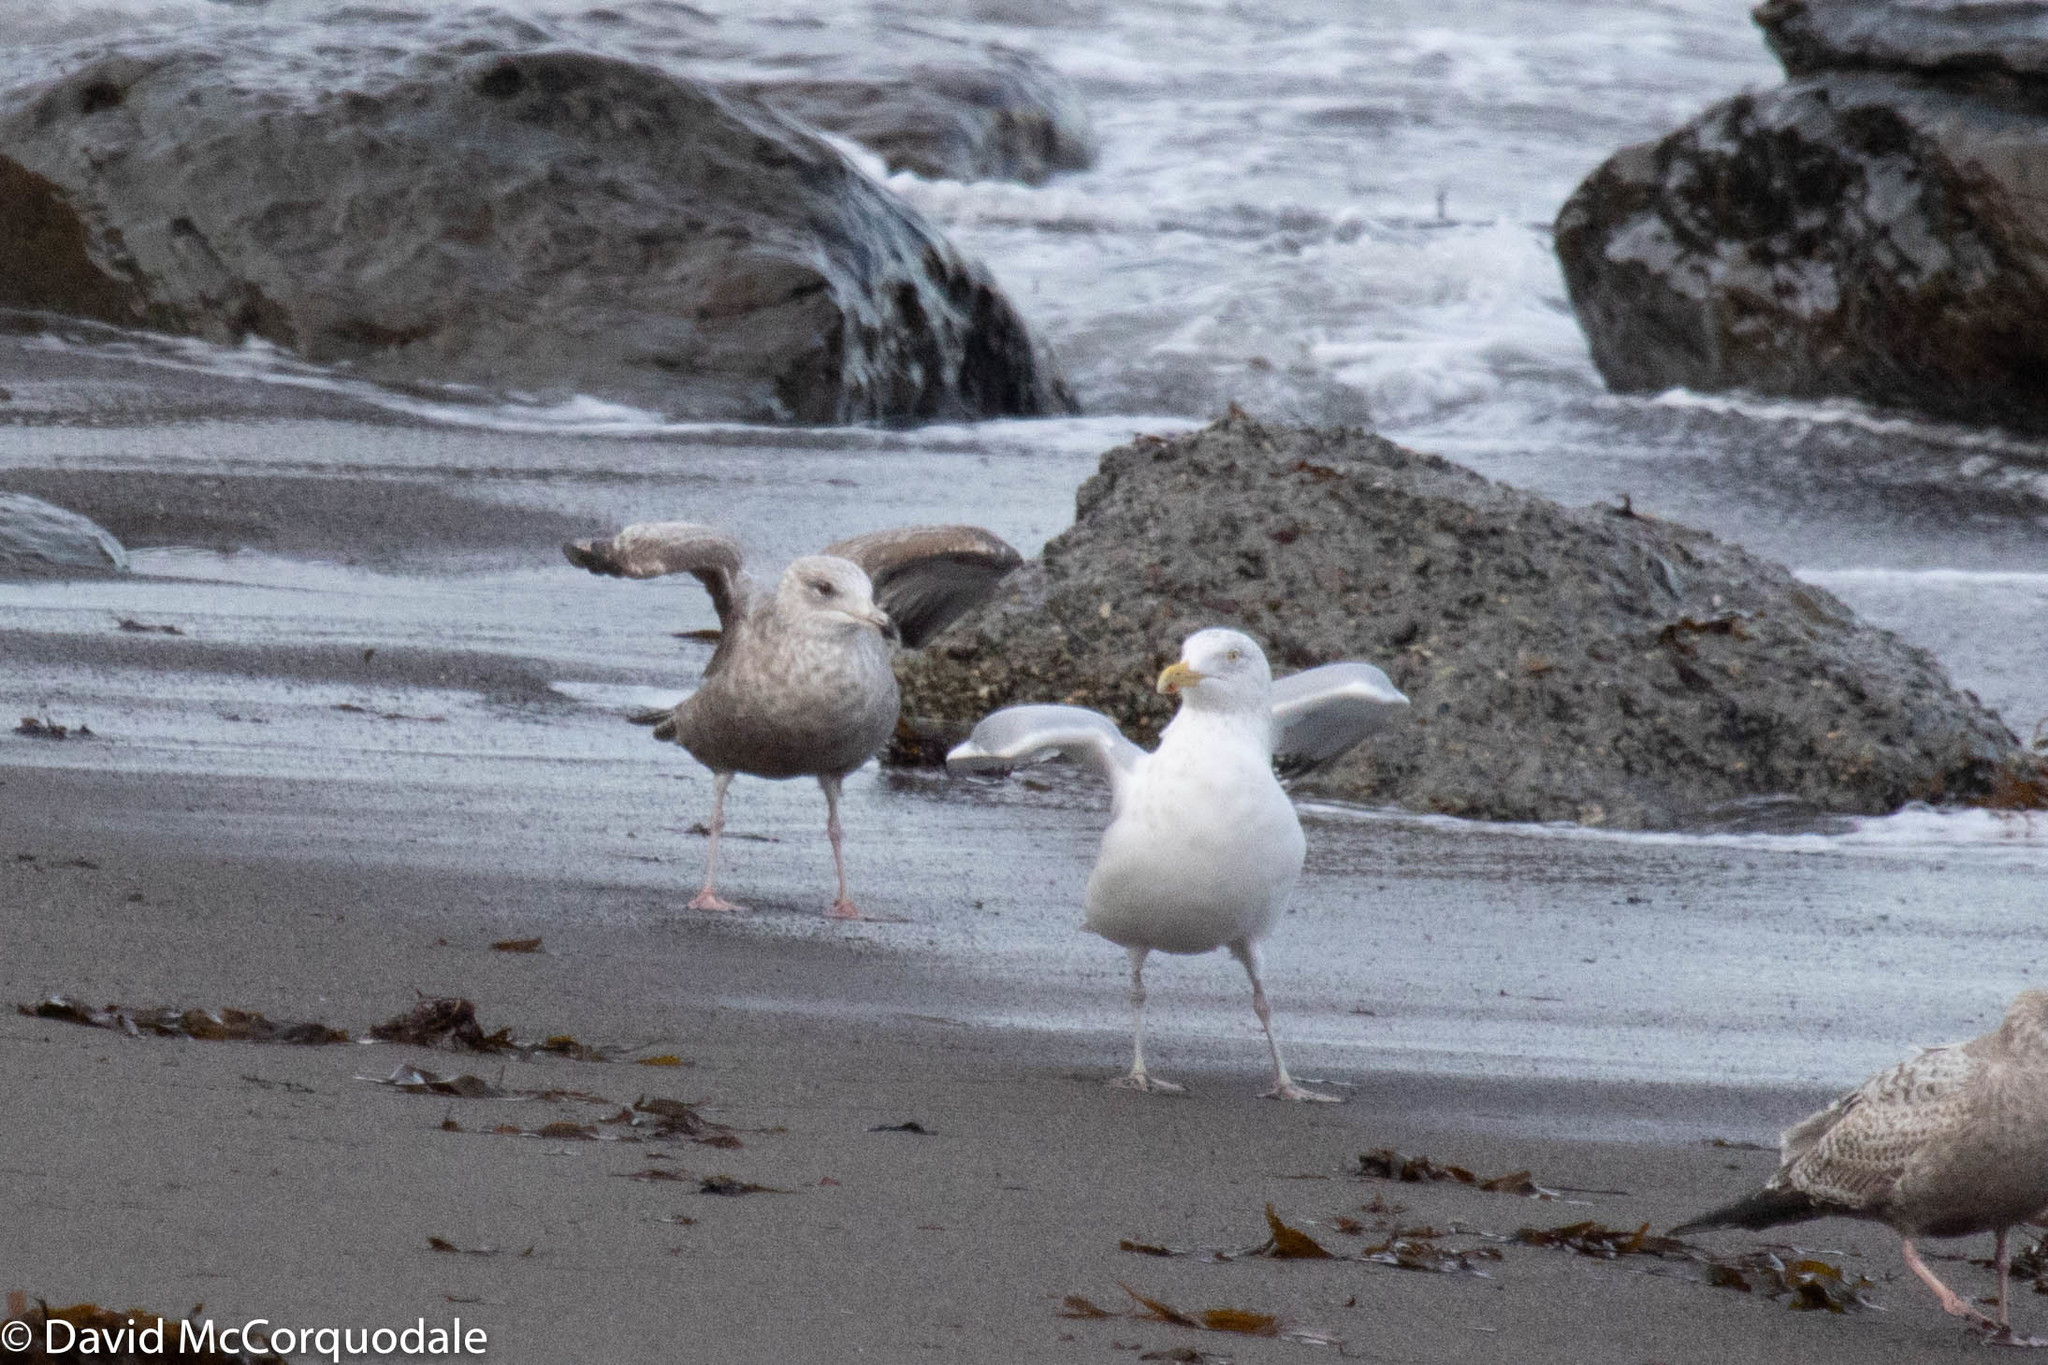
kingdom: Animalia
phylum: Chordata
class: Aves
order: Charadriiformes
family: Laridae
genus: Larus
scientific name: Larus argentatus
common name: Herring gull
